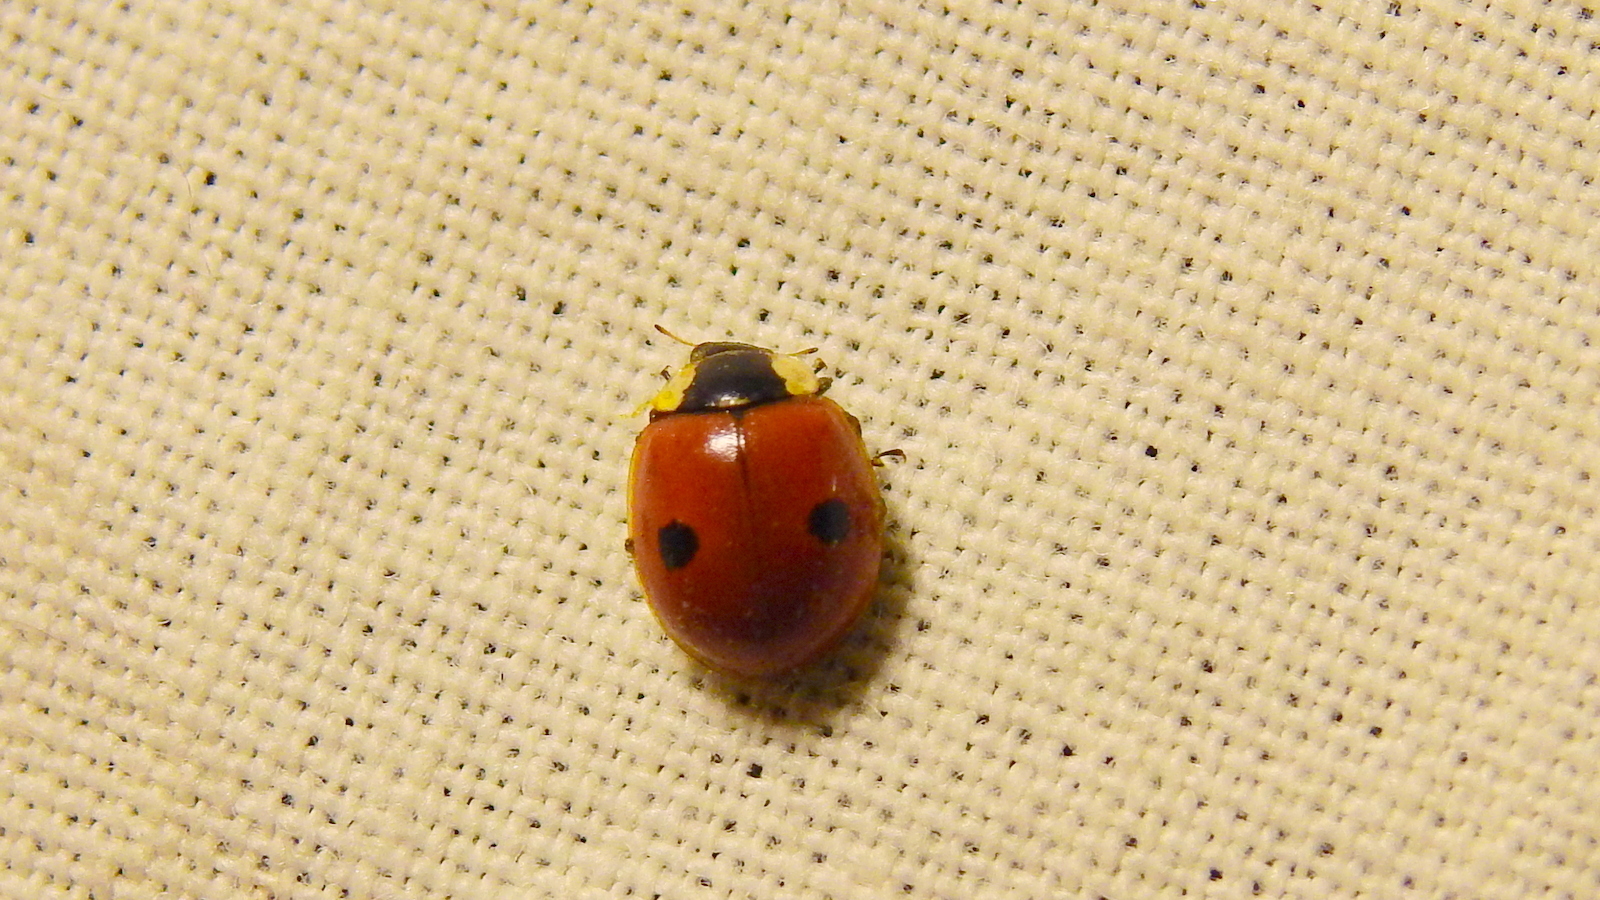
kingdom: Animalia
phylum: Arthropoda
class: Insecta
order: Coleoptera
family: Coccinellidae
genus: Adalia
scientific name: Adalia bipunctata
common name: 2-spot ladybird
